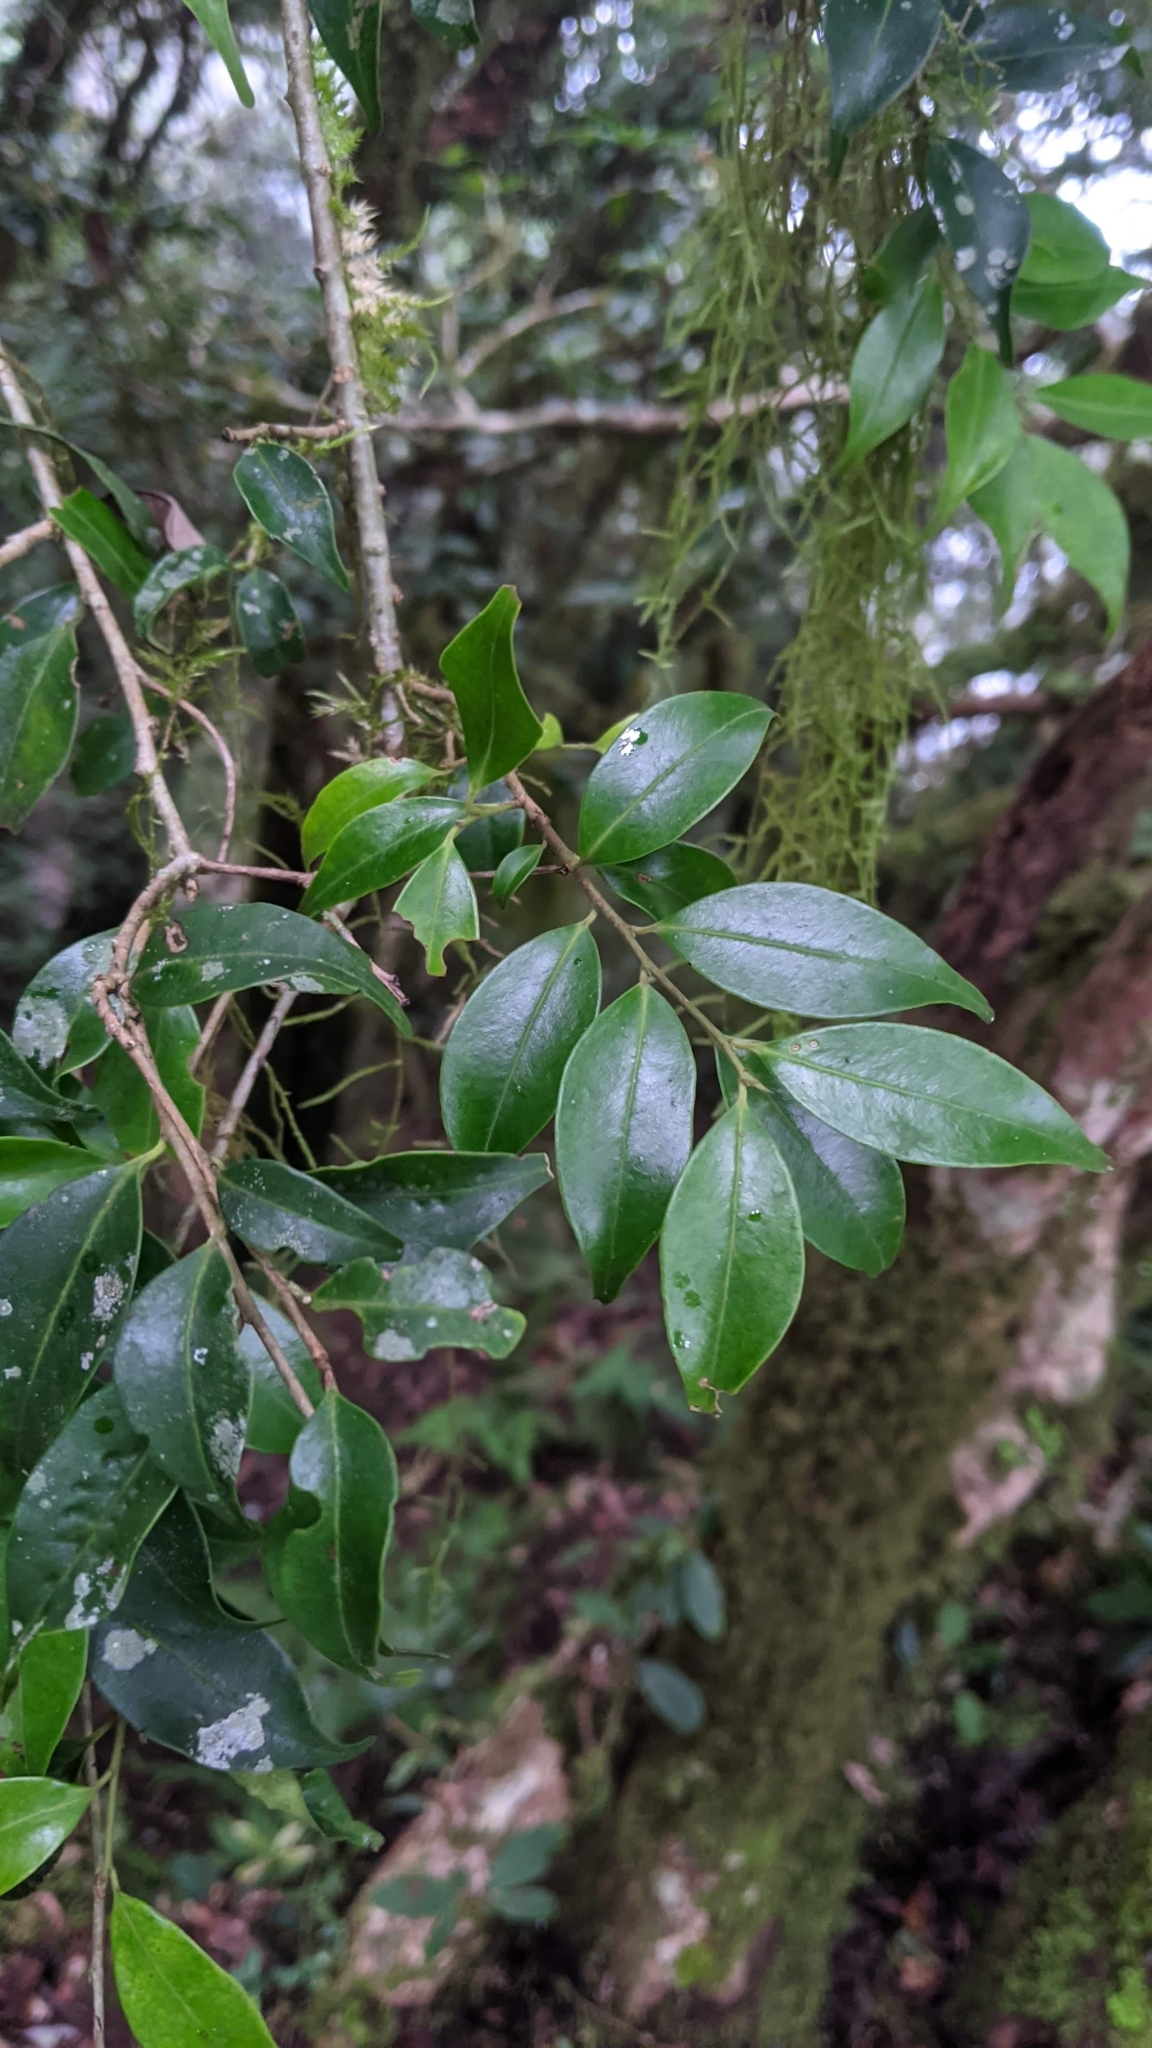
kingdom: Plantae
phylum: Tracheophyta
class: Magnoliopsida
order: Ericales
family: Symplocaceae
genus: Symplocos
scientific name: Symplocos anomala
